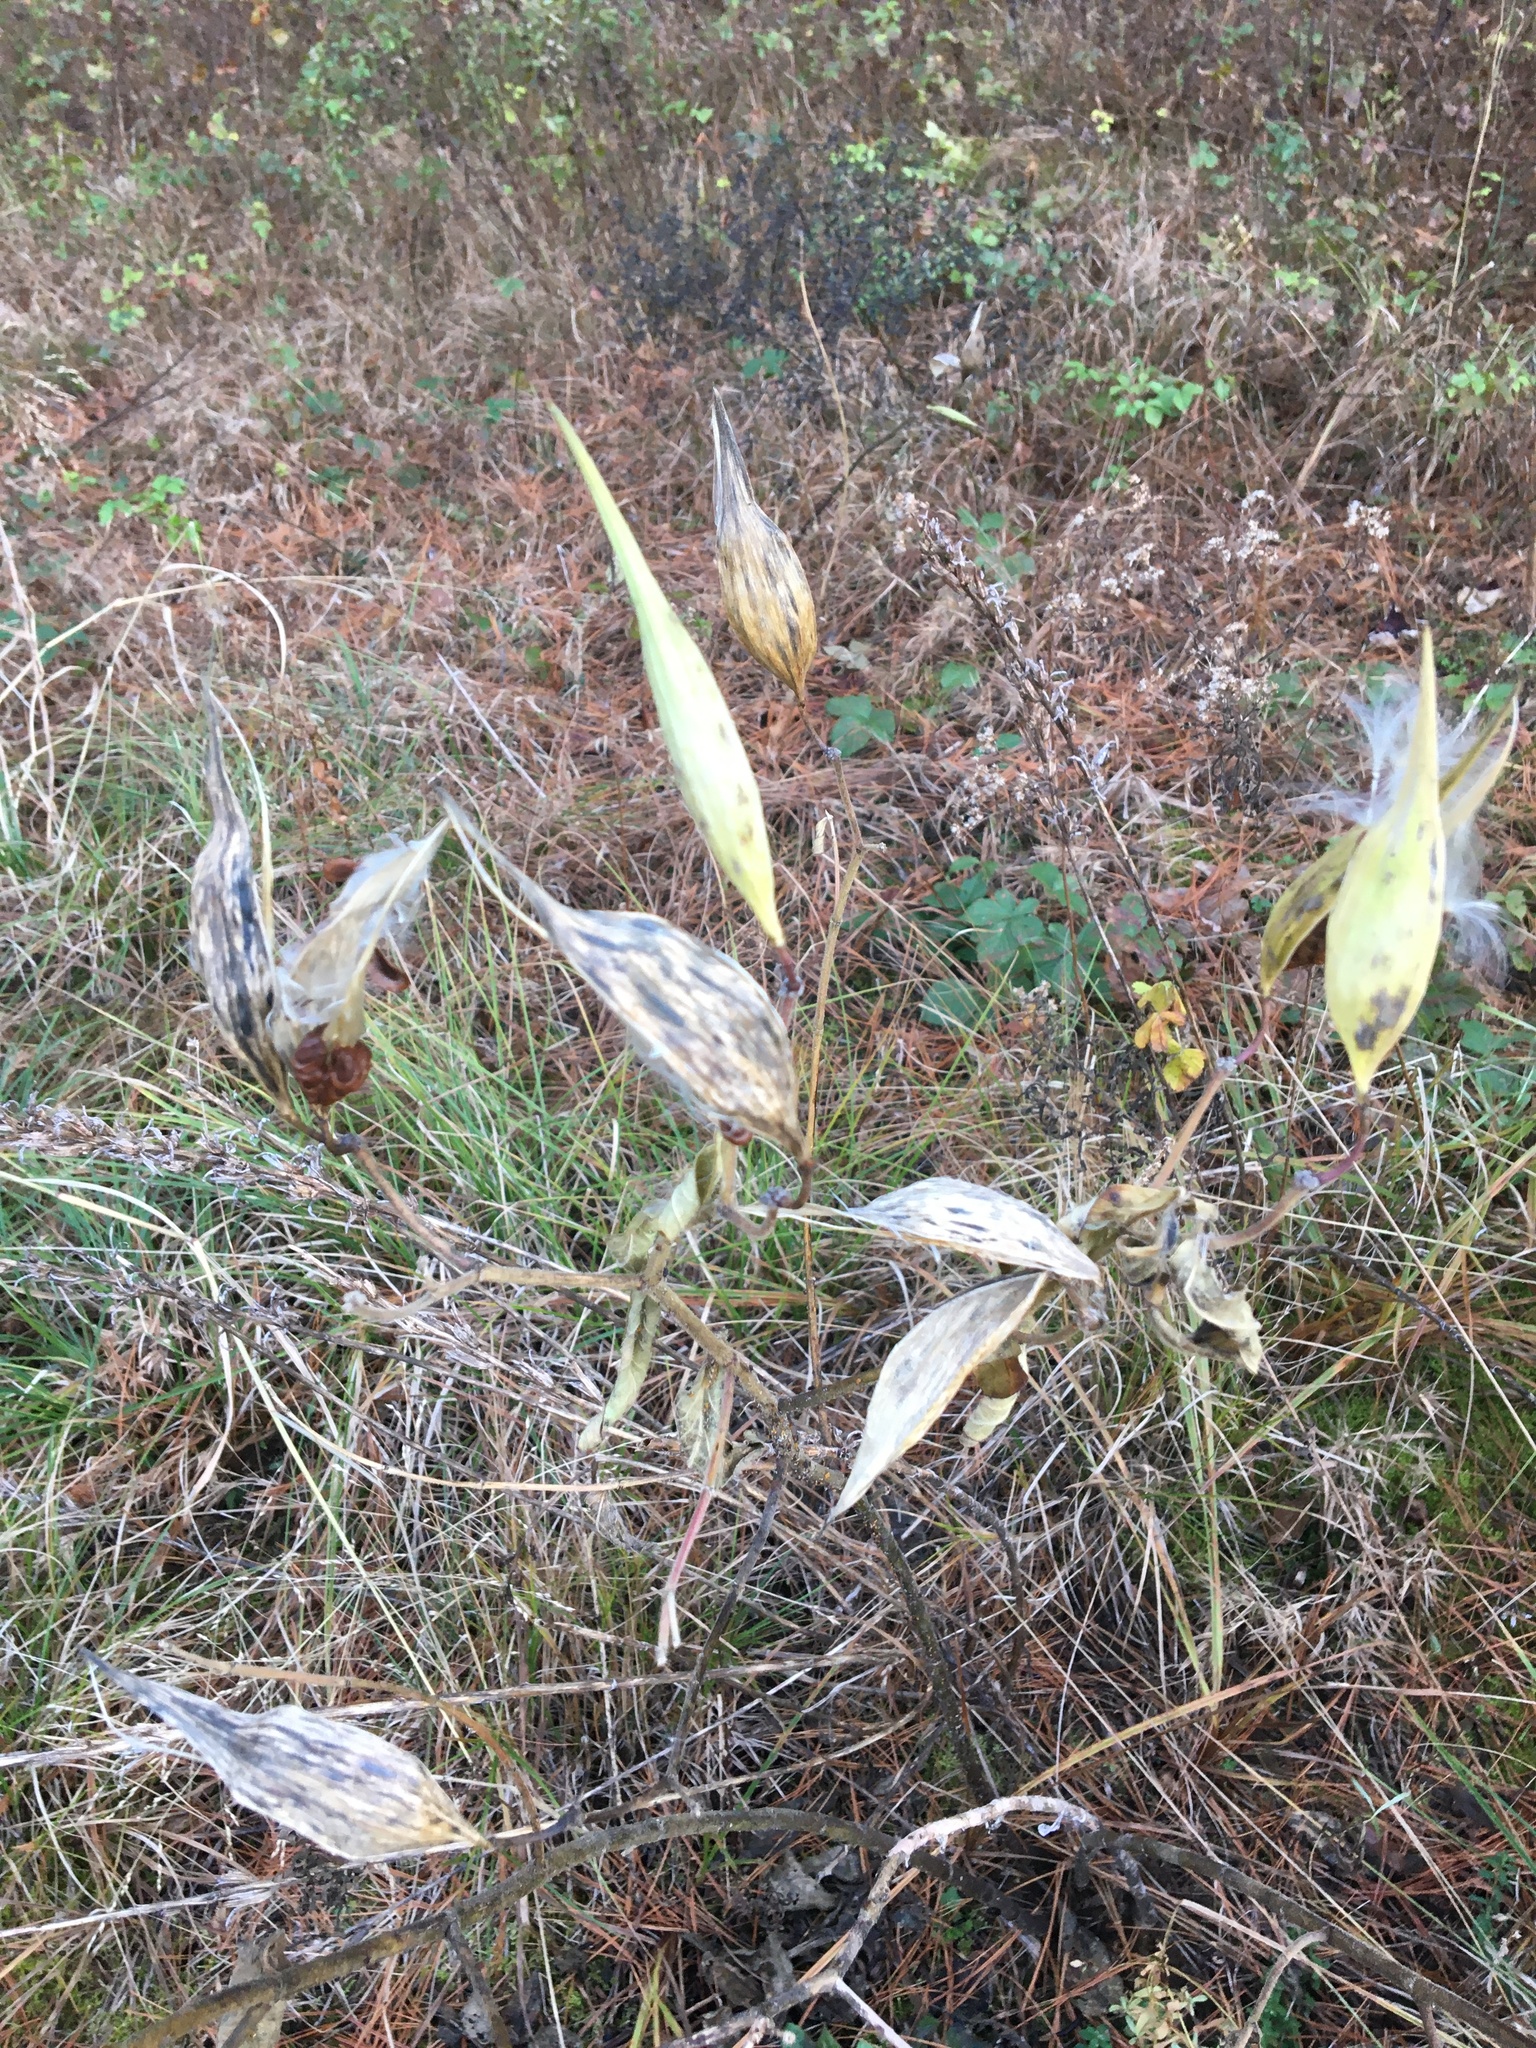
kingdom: Plantae
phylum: Tracheophyta
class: Magnoliopsida
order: Gentianales
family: Apocynaceae
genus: Asclepias
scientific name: Asclepias incarnata
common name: Swamp milkweed
